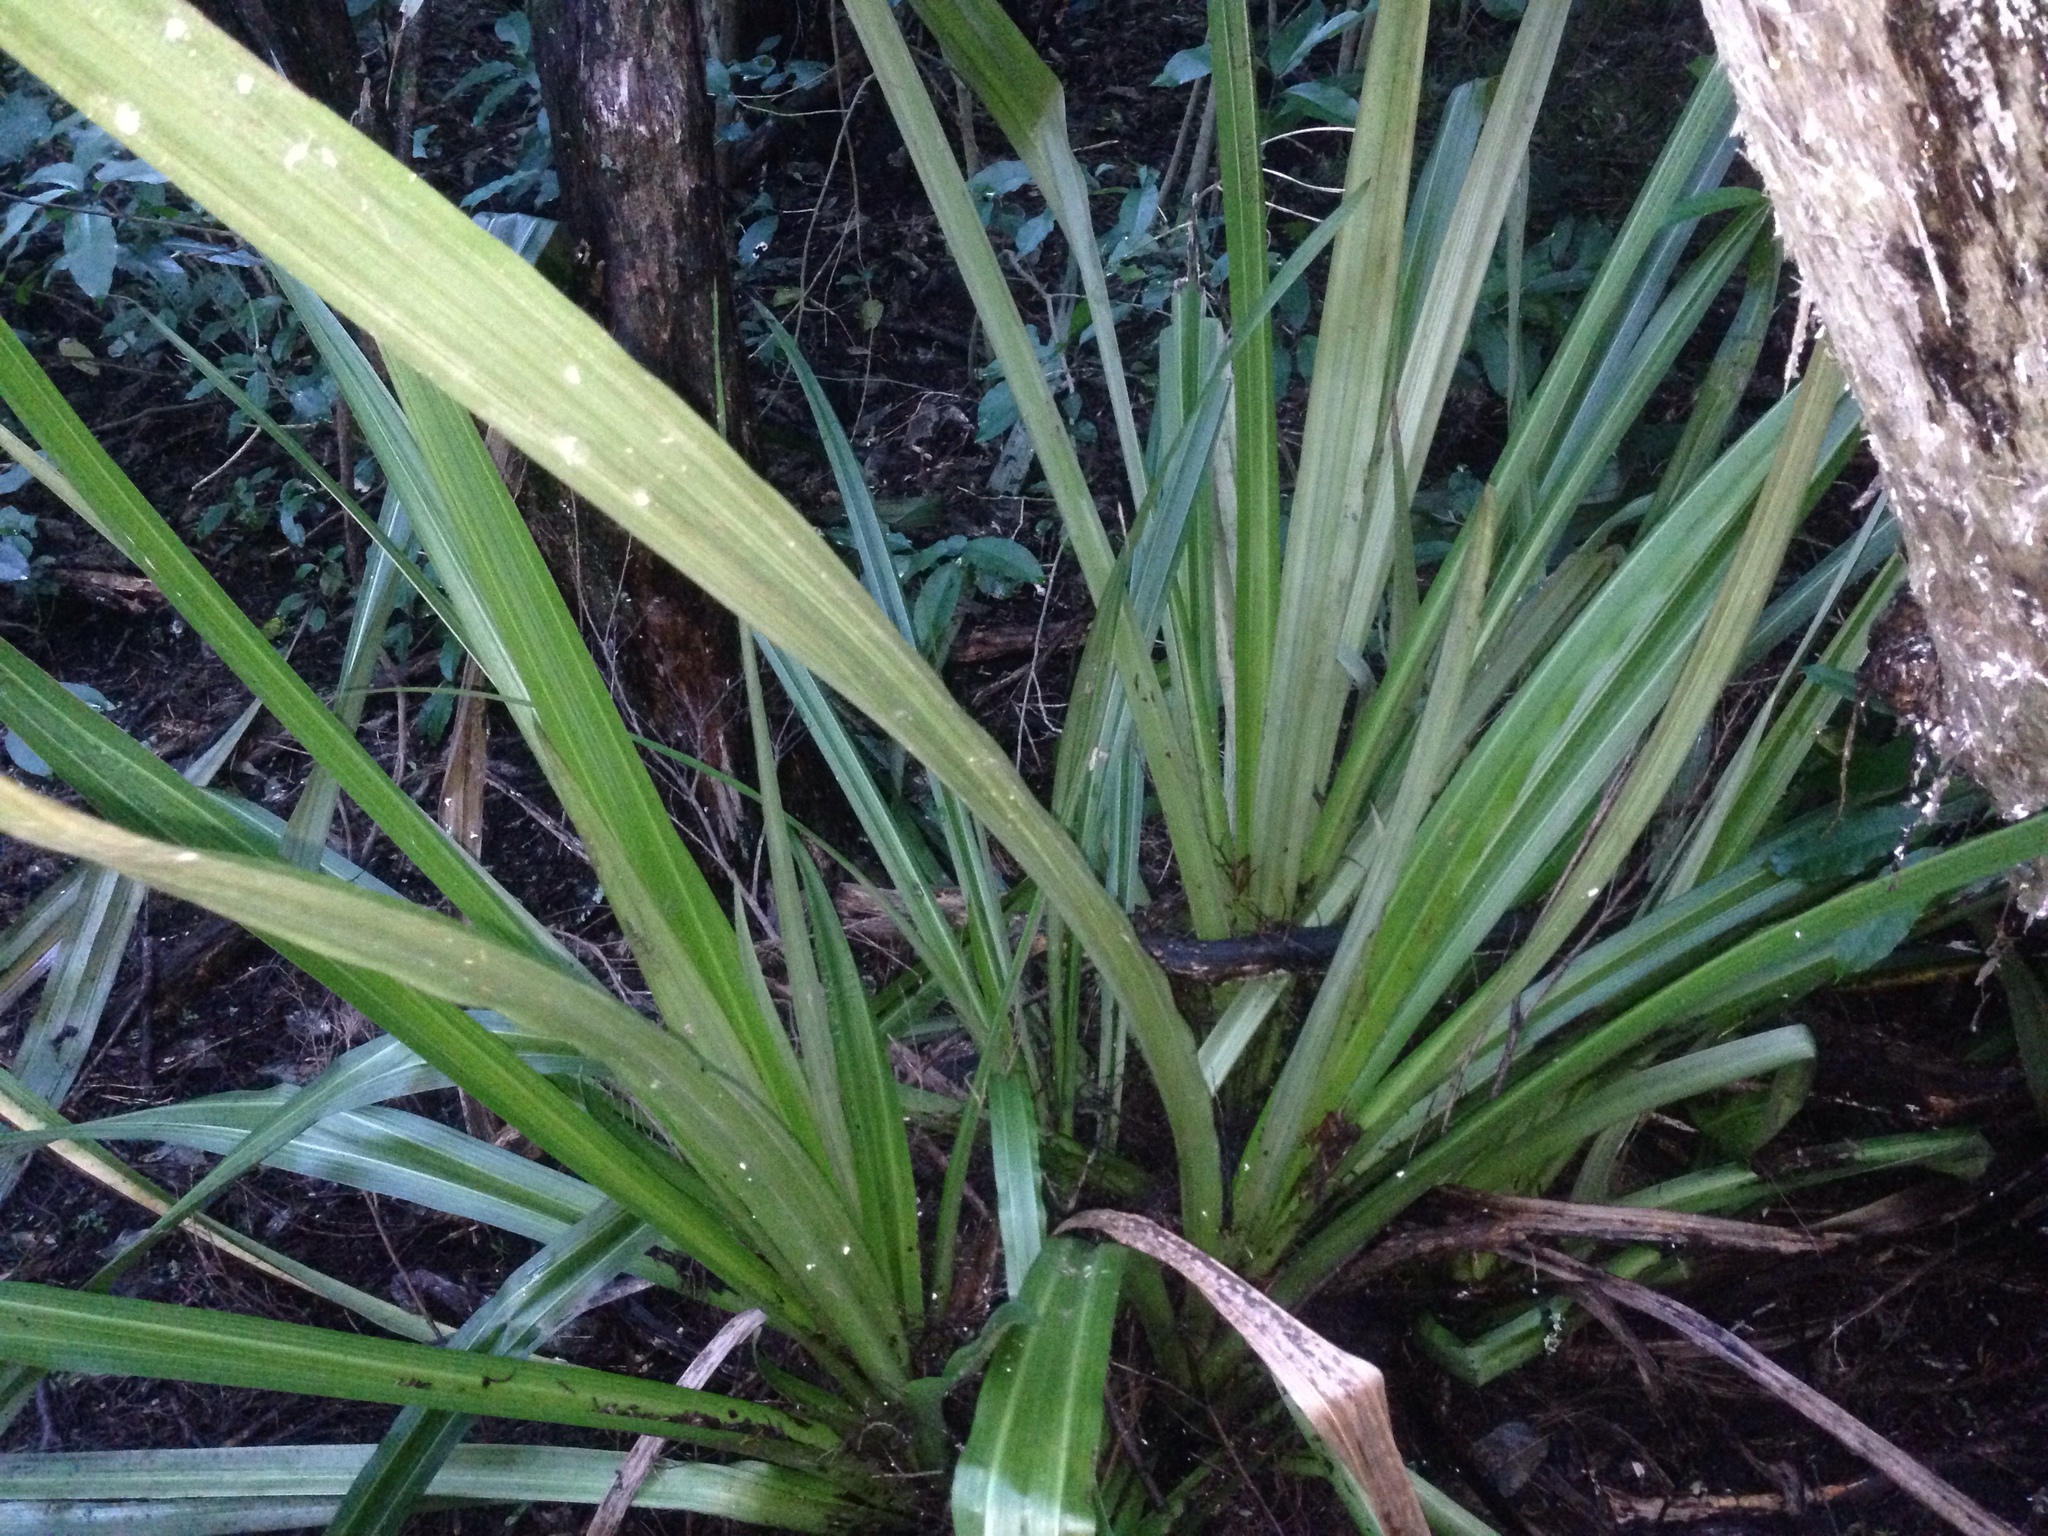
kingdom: Plantae
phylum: Tracheophyta
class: Liliopsida
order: Asparagales
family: Asteliaceae
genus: Astelia
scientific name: Astelia grandis
